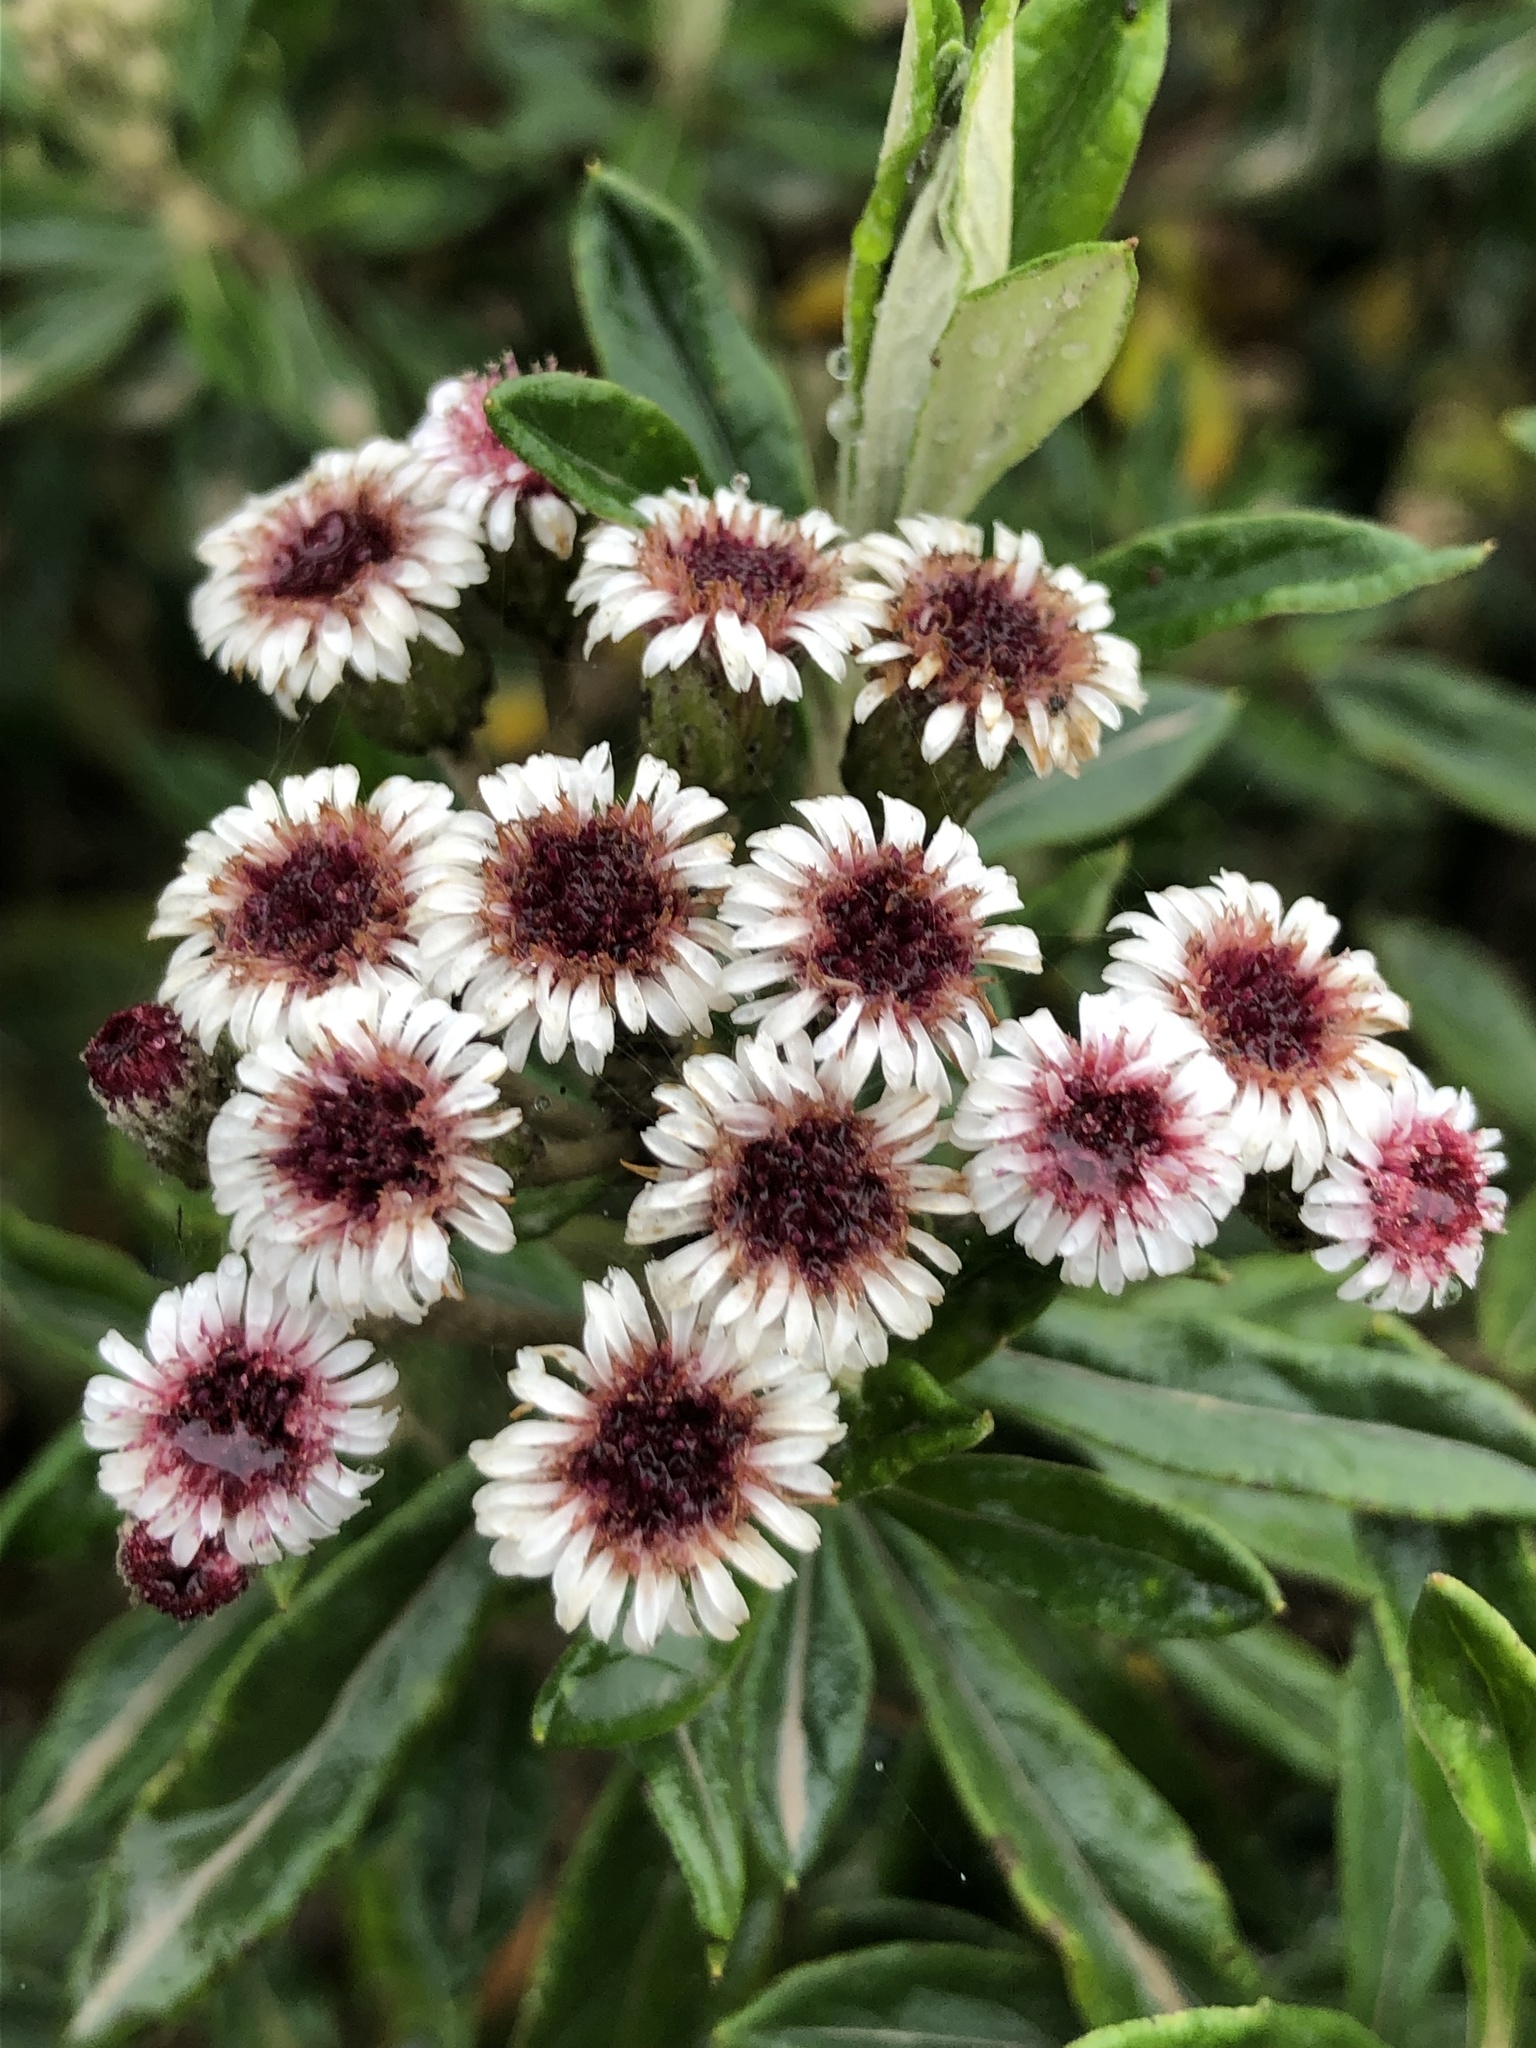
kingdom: Plantae
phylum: Tracheophyta
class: Magnoliopsida
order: Asterales
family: Asteraceae
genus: Linochilus
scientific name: Linochilus alveolatus
